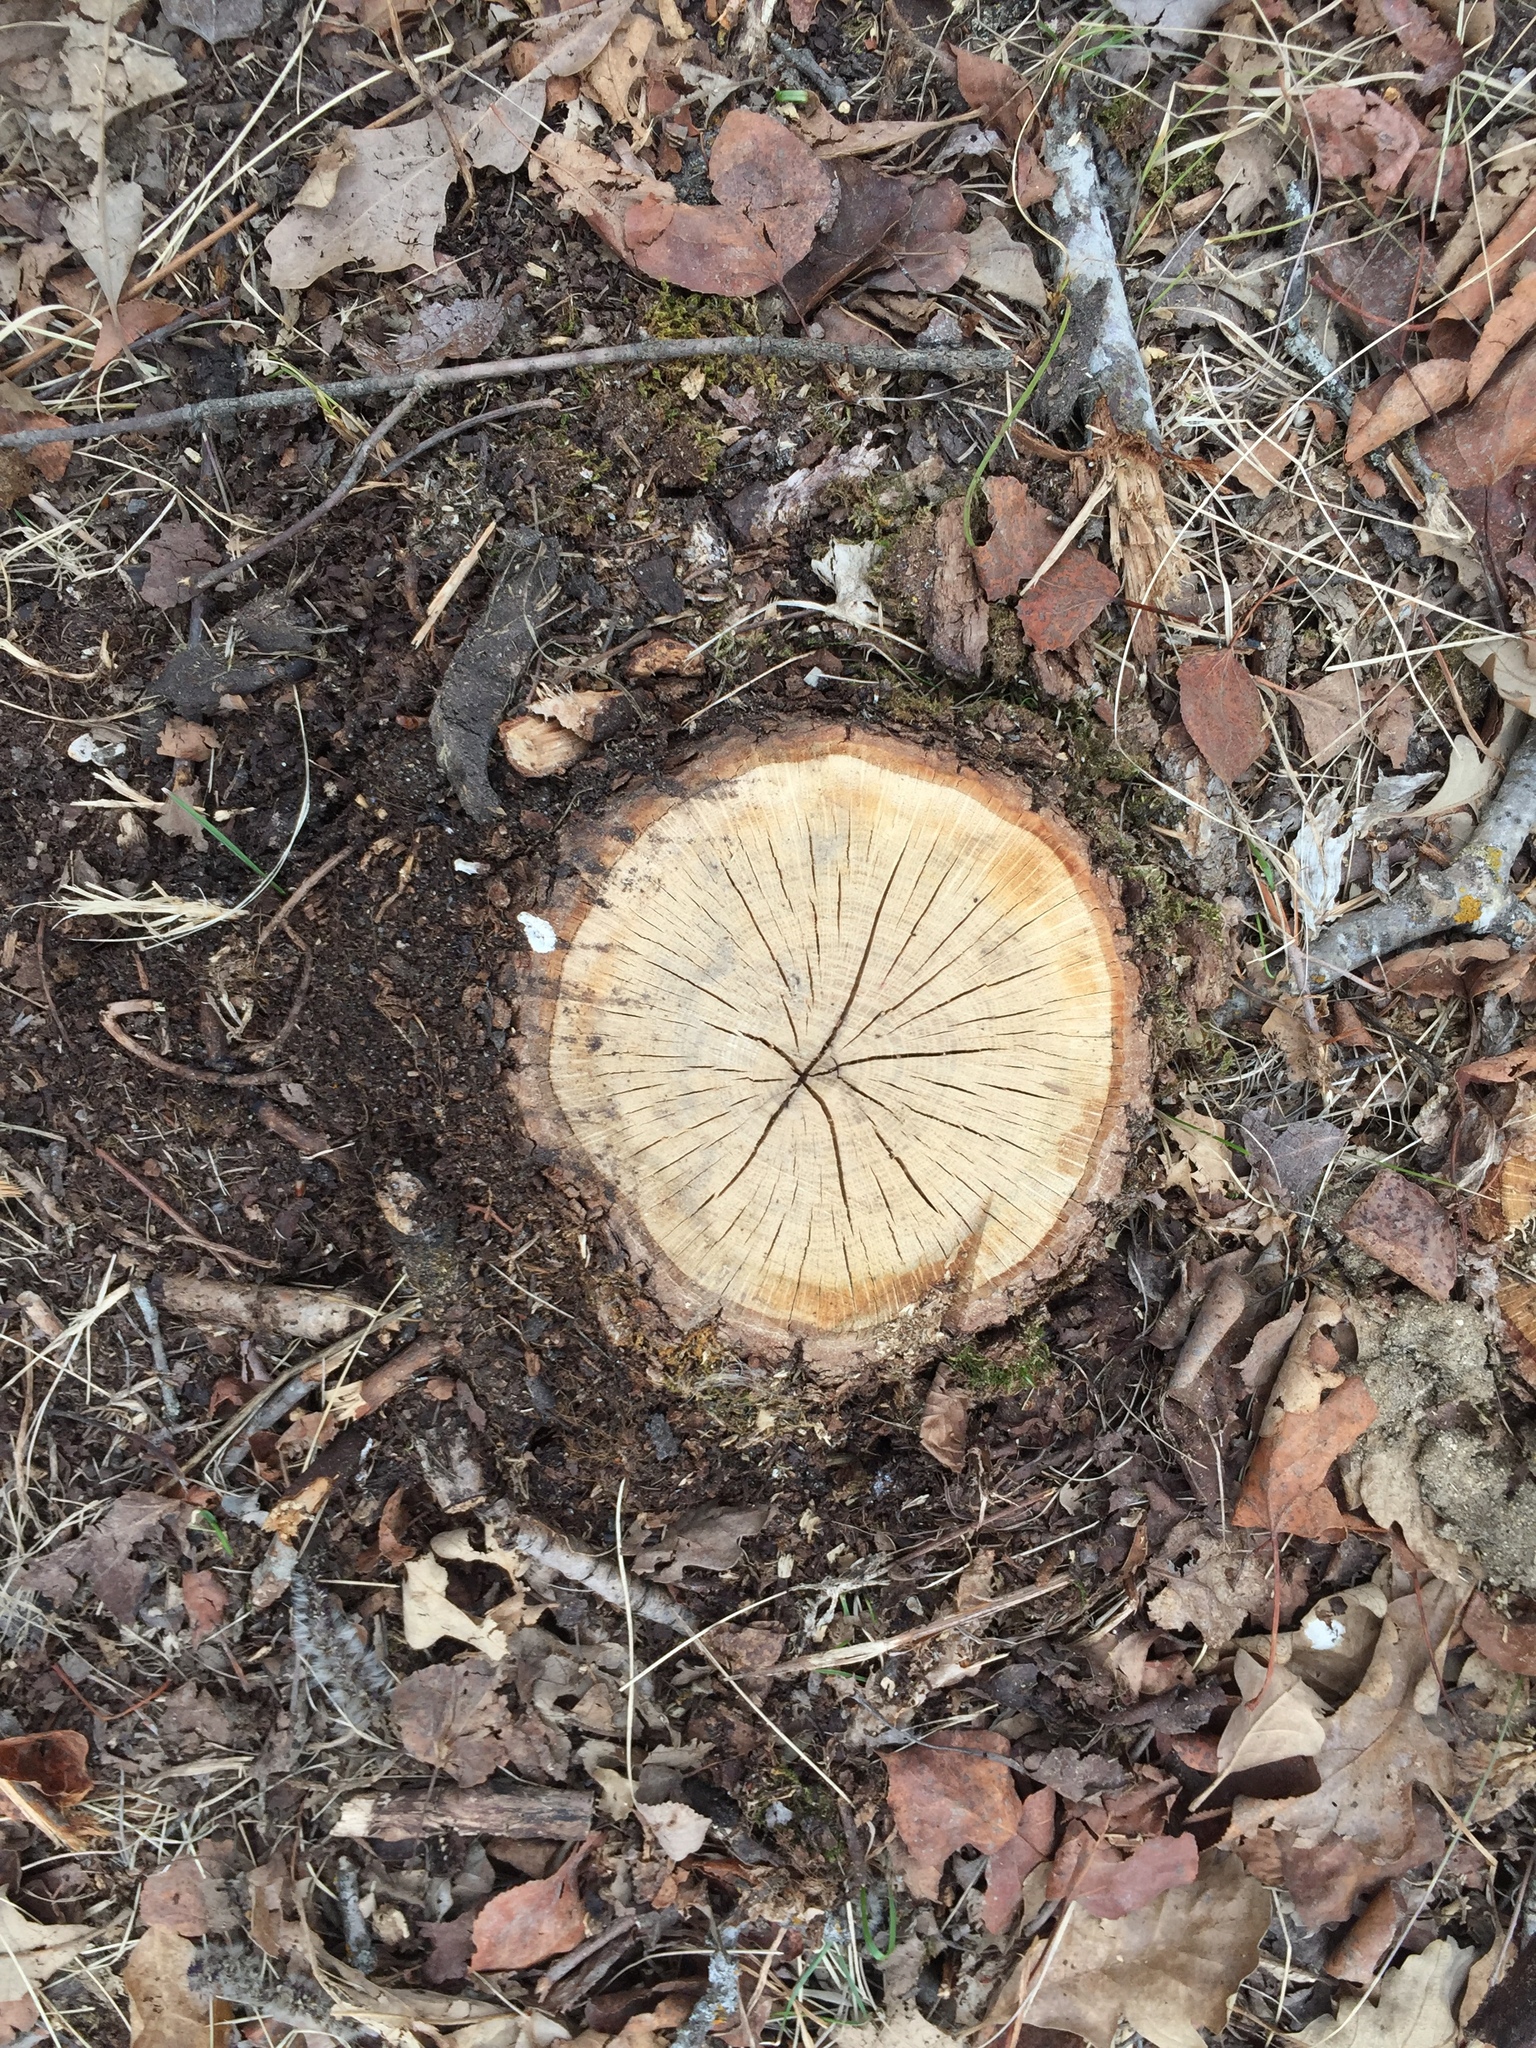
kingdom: Plantae
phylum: Tracheophyta
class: Magnoliopsida
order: Fagales
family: Fagaceae
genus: Quercus
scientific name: Quercus macrocarpa
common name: Bur oak
